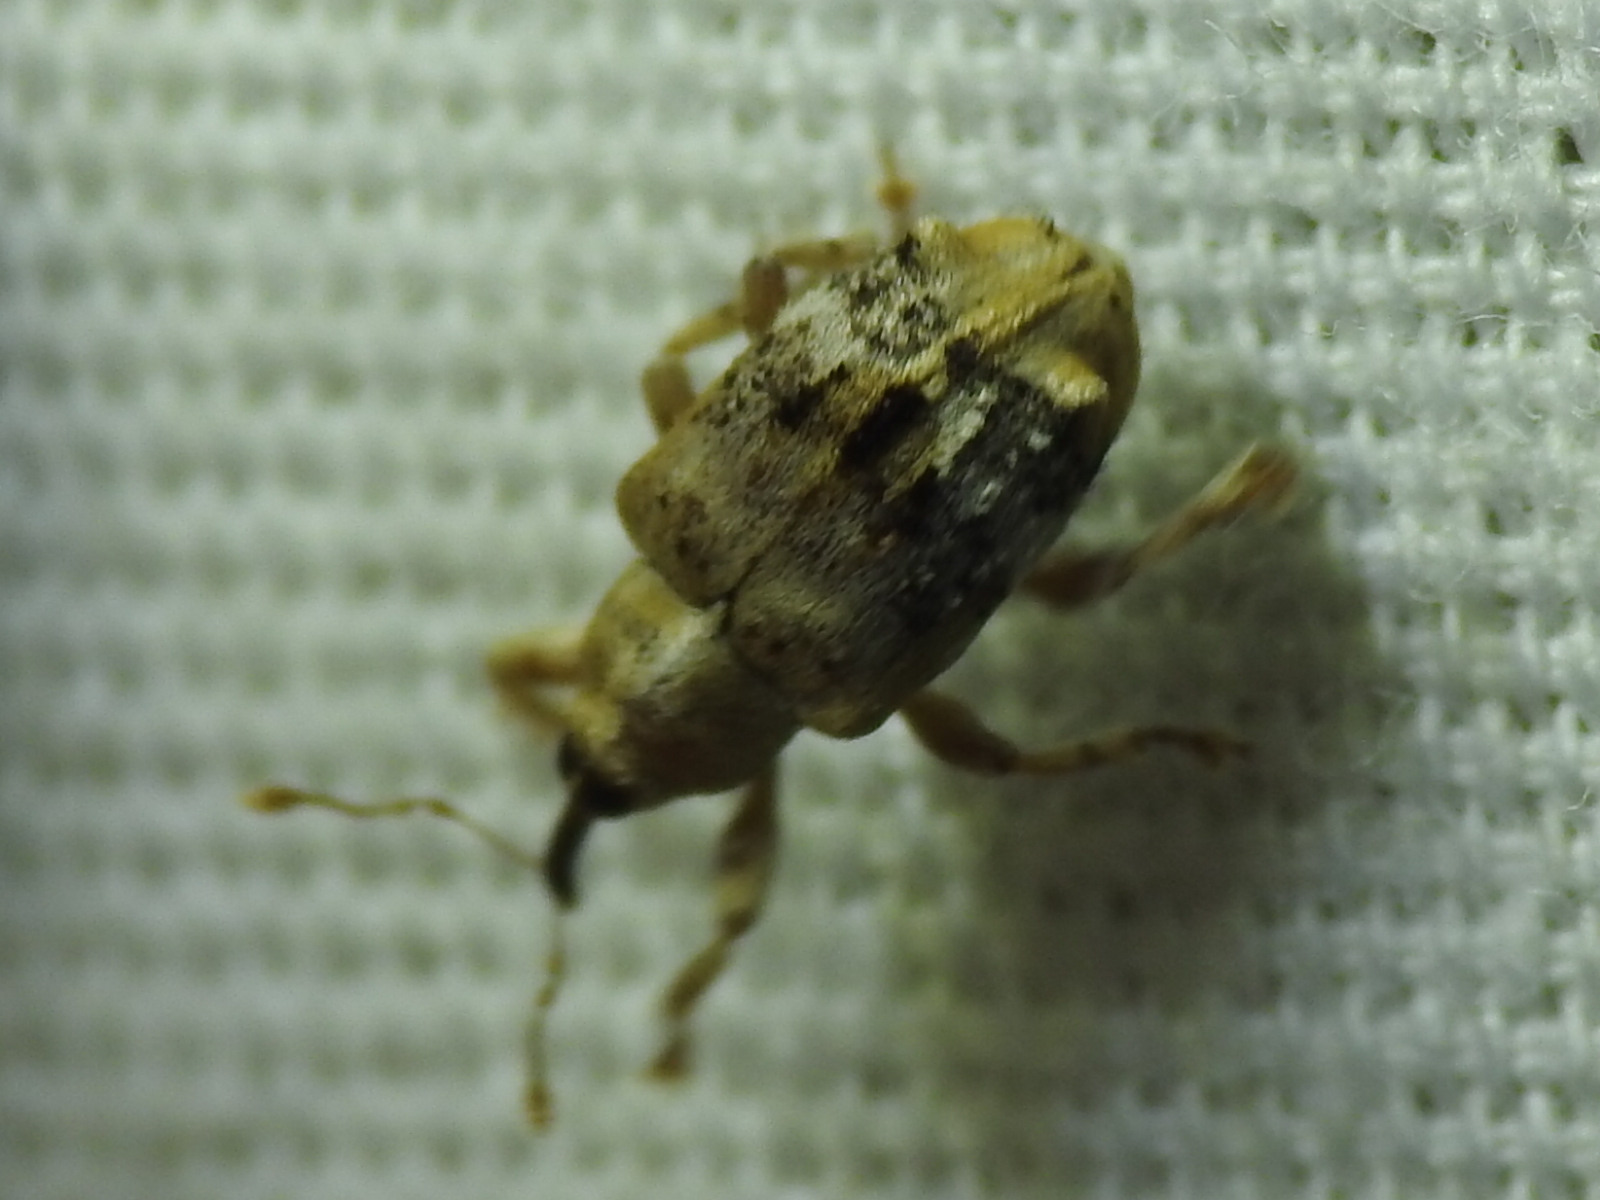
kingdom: Animalia
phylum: Arthropoda
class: Insecta
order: Coleoptera
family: Curculionidae
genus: Lignyodes
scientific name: Lignyodes pallidus
